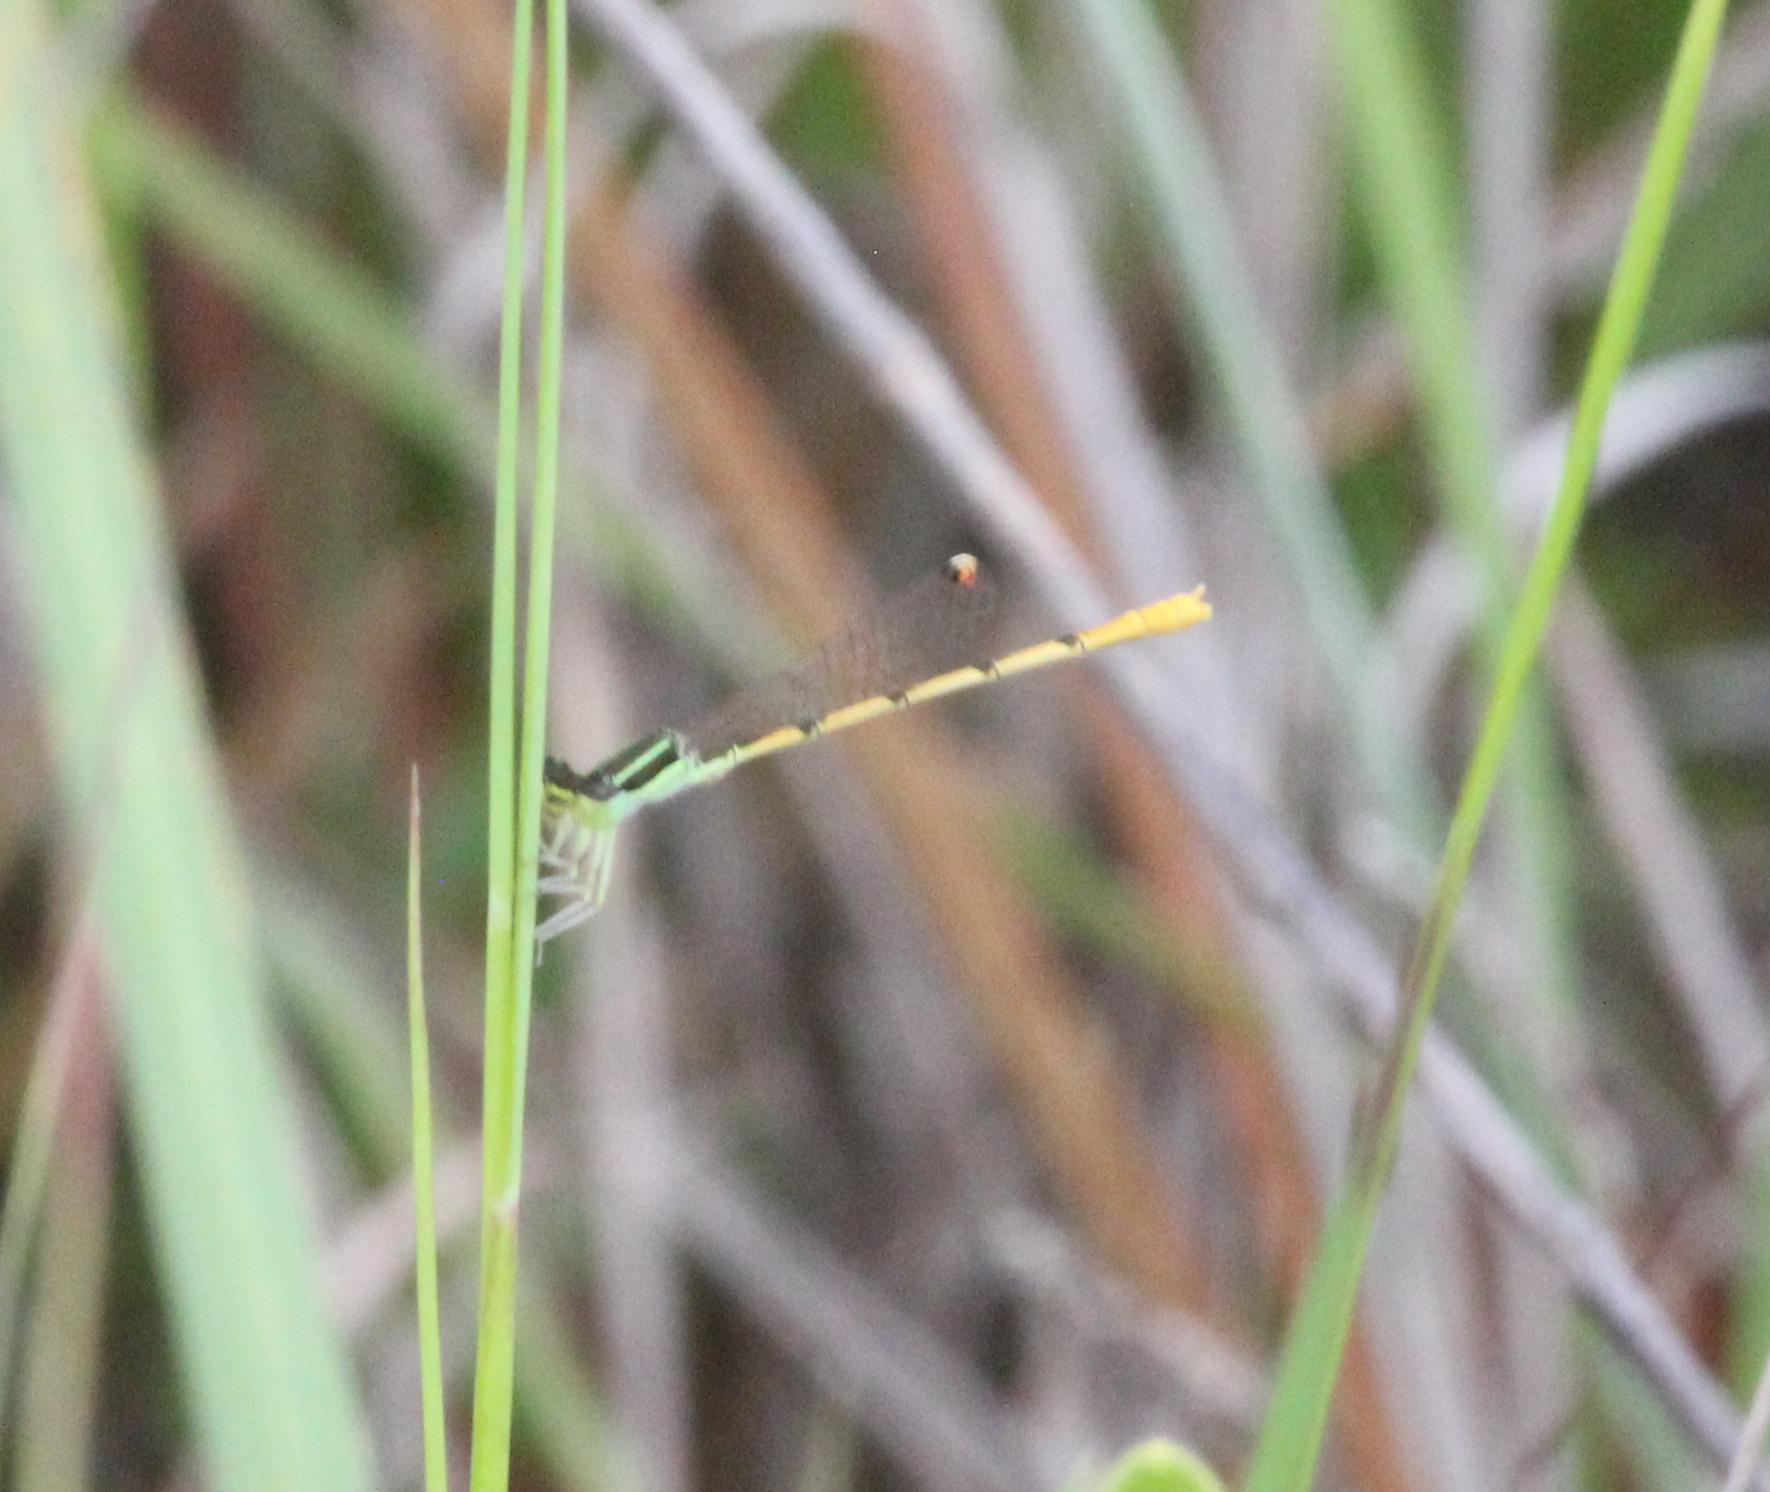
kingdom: Animalia
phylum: Arthropoda
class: Insecta
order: Odonata
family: Coenagrionidae
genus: Ischnura
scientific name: Ischnura hastata
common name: Citrine forktail
